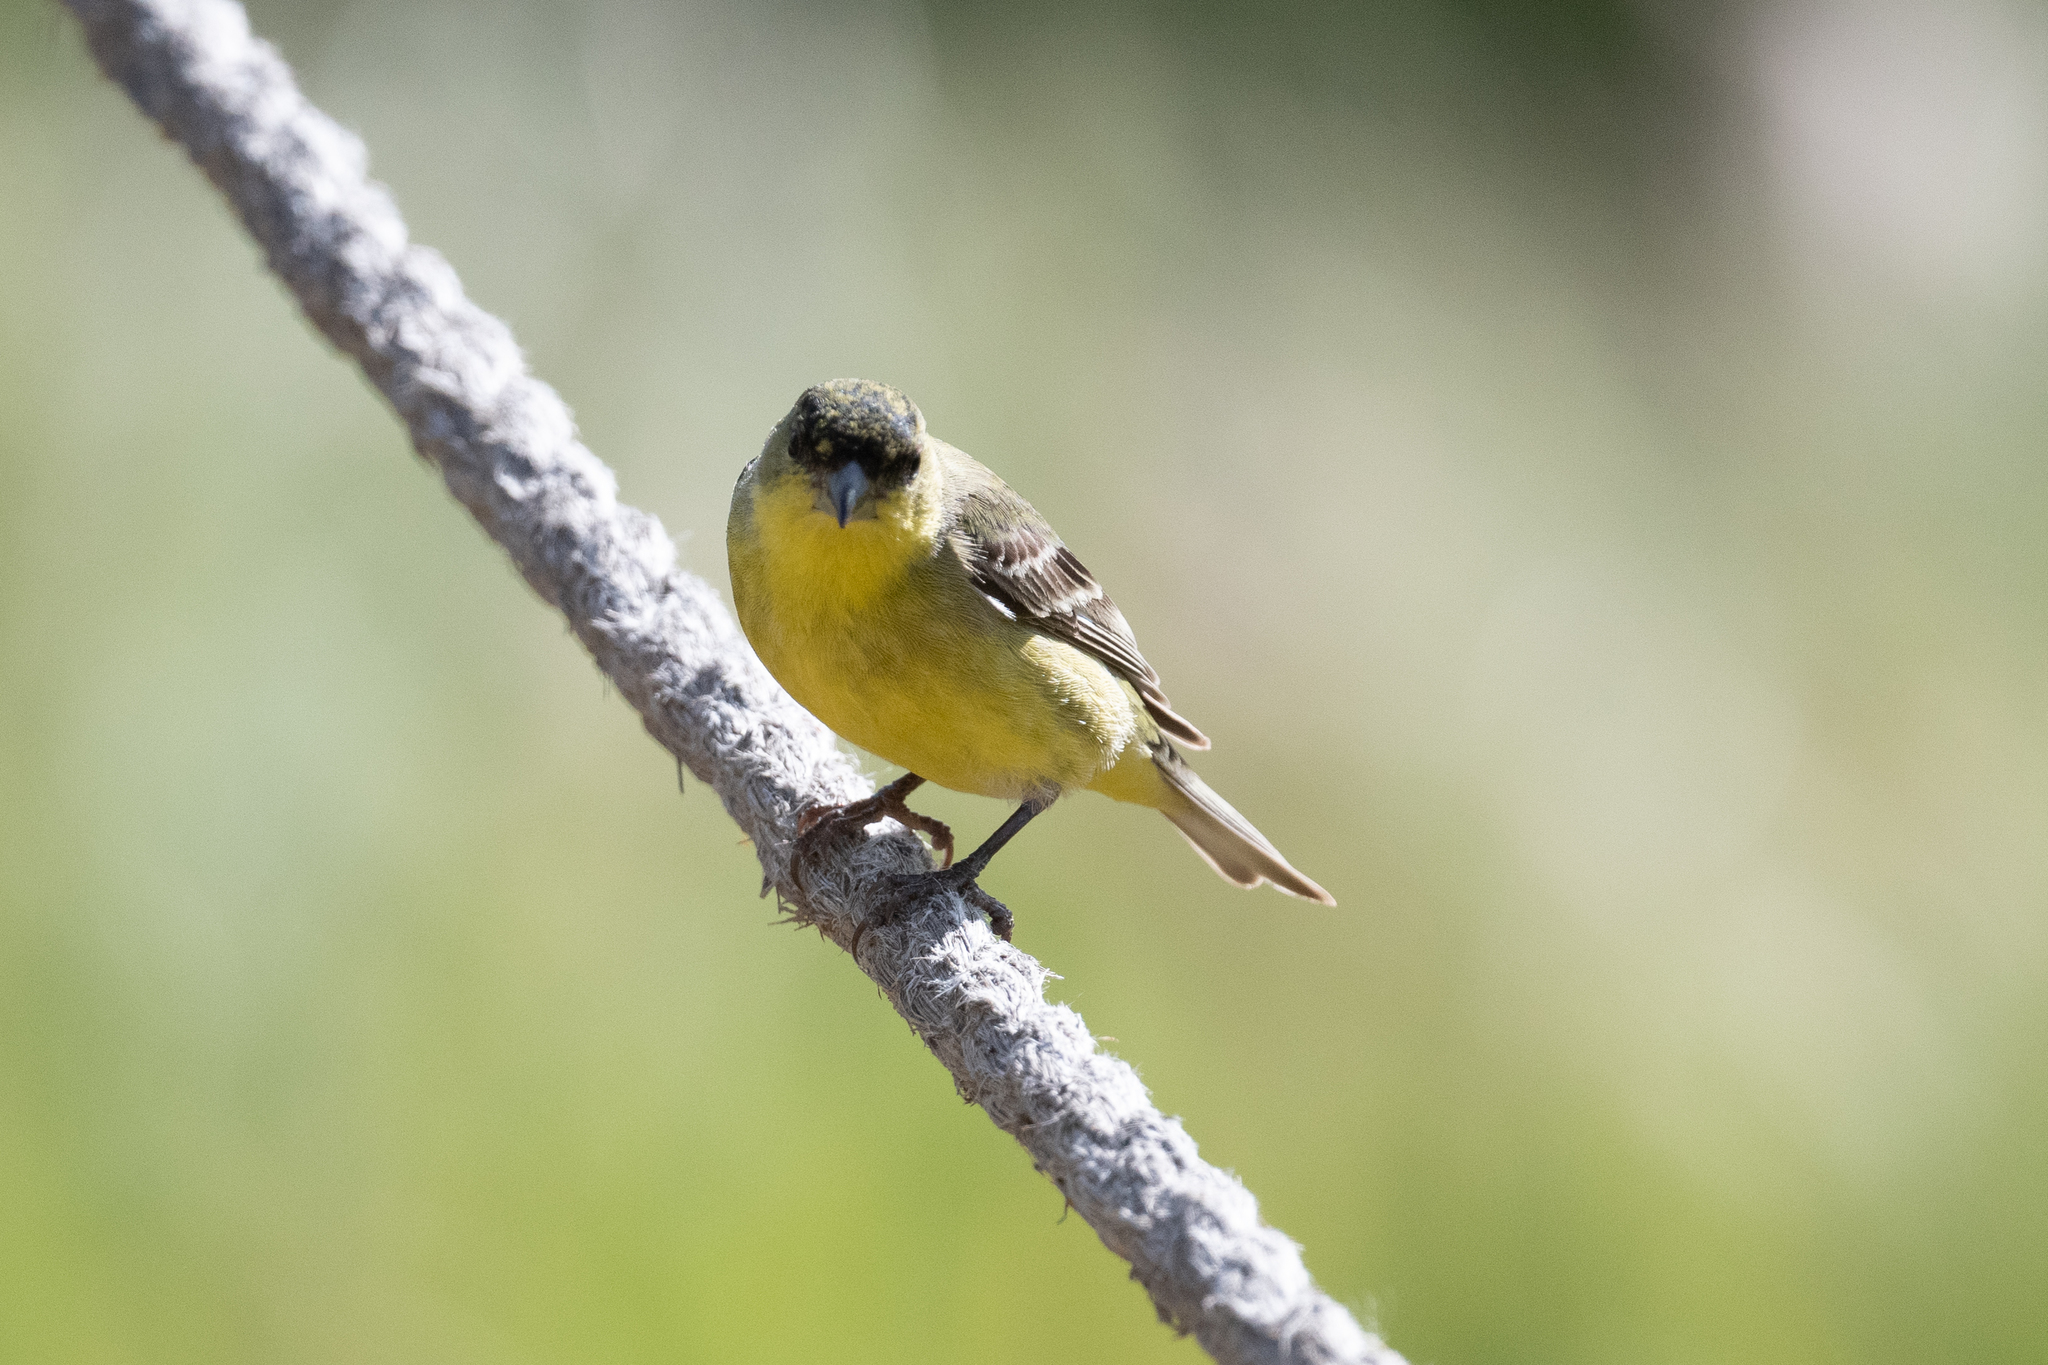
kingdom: Animalia
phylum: Chordata
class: Aves
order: Passeriformes
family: Fringillidae
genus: Spinus
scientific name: Spinus psaltria
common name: Lesser goldfinch
